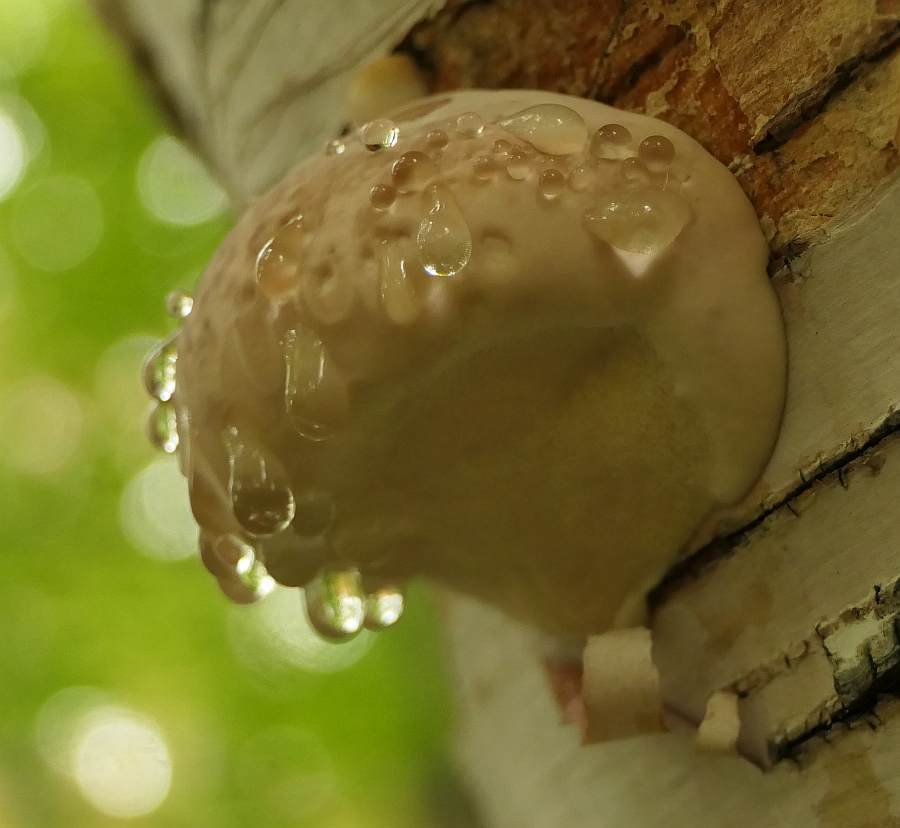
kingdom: Fungi
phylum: Basidiomycota
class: Agaricomycetes
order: Polyporales
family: Fomitopsidaceae
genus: Fomitopsis
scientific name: Fomitopsis betulina
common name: Birch polypore
